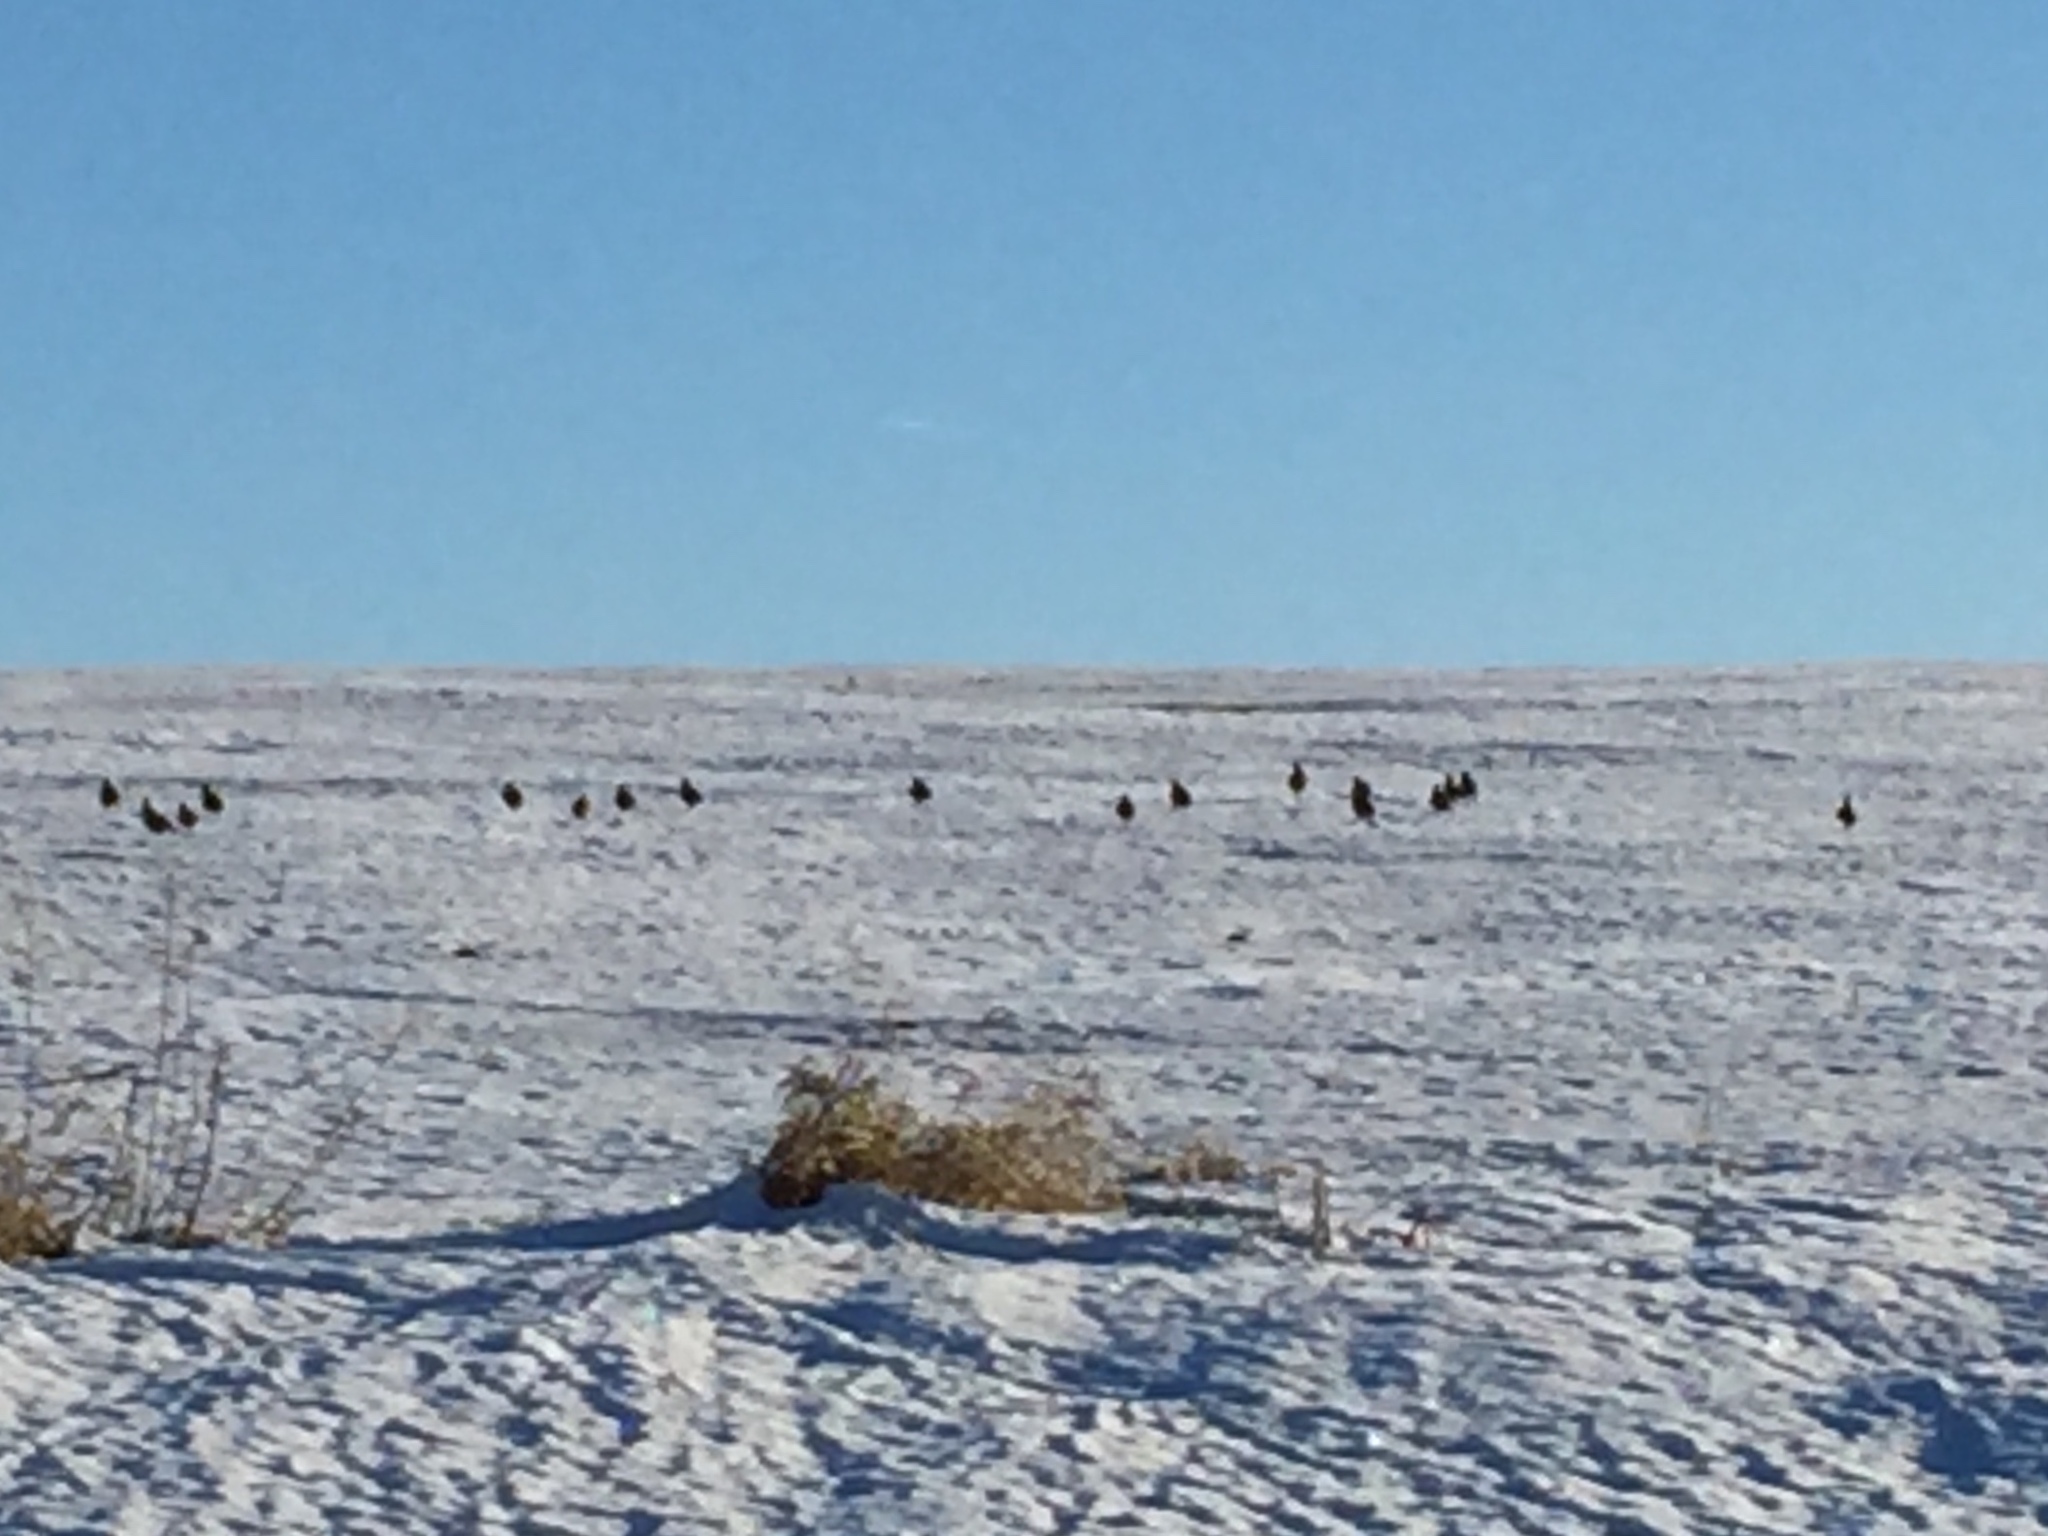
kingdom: Animalia
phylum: Chordata
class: Aves
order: Galliformes
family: Phasianidae
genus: Perdix
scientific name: Perdix perdix
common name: Grey partridge
